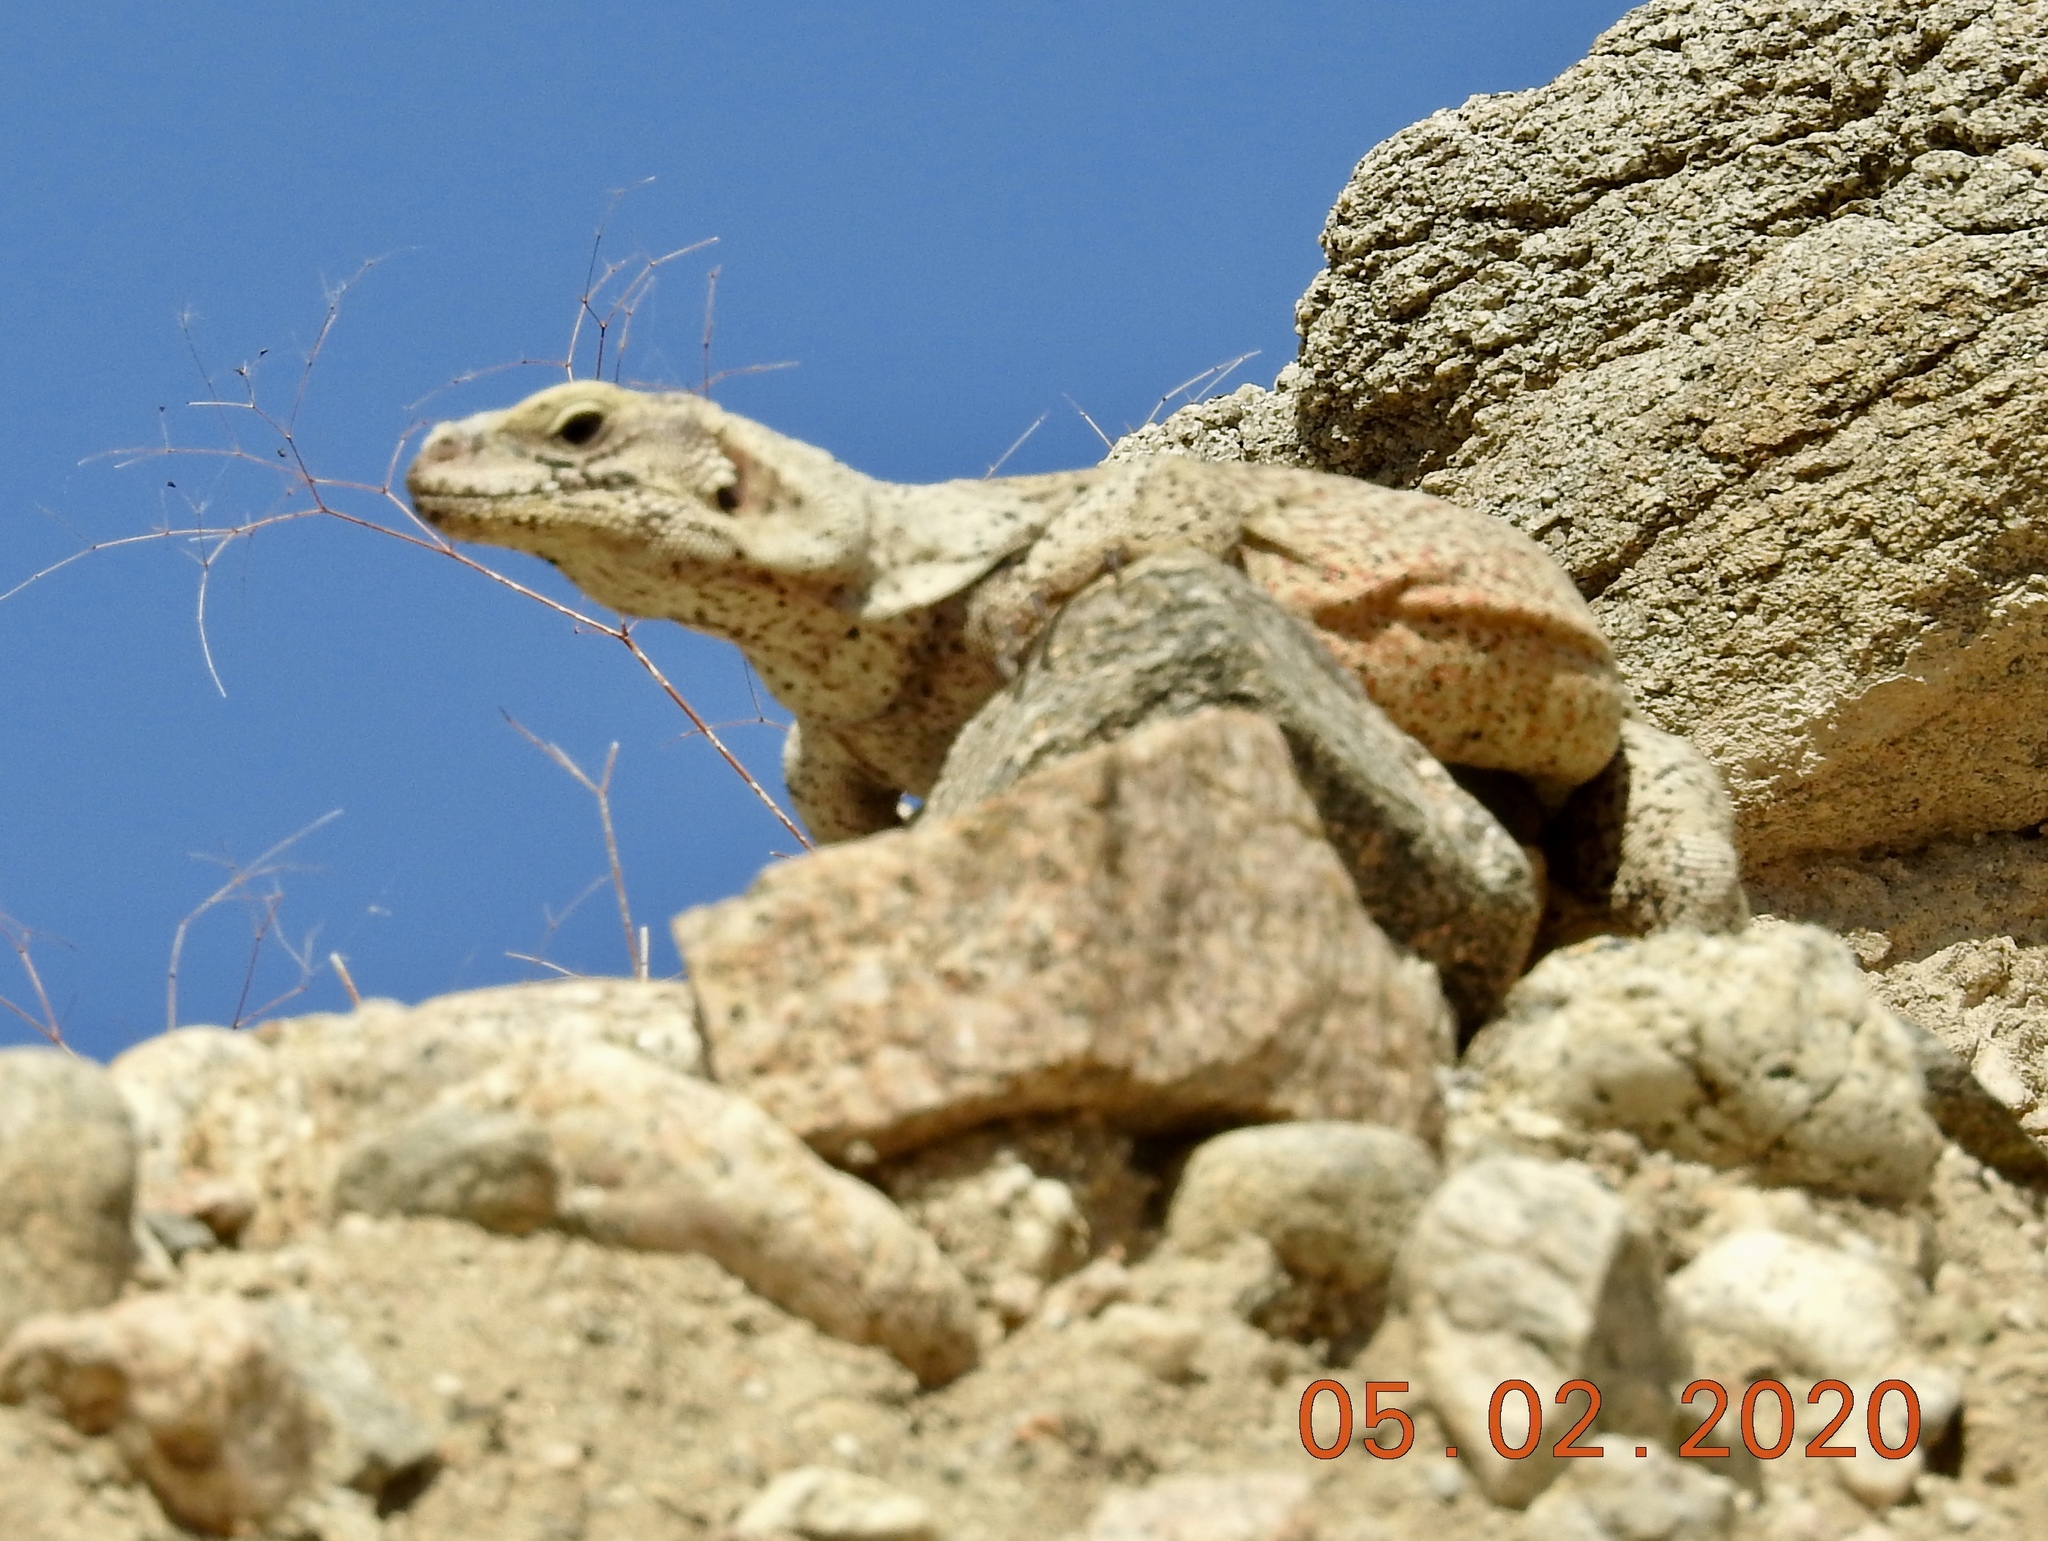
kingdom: Animalia
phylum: Chordata
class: Squamata
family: Iguanidae
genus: Sauromalus
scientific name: Sauromalus ater
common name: Northern chuckwalla
